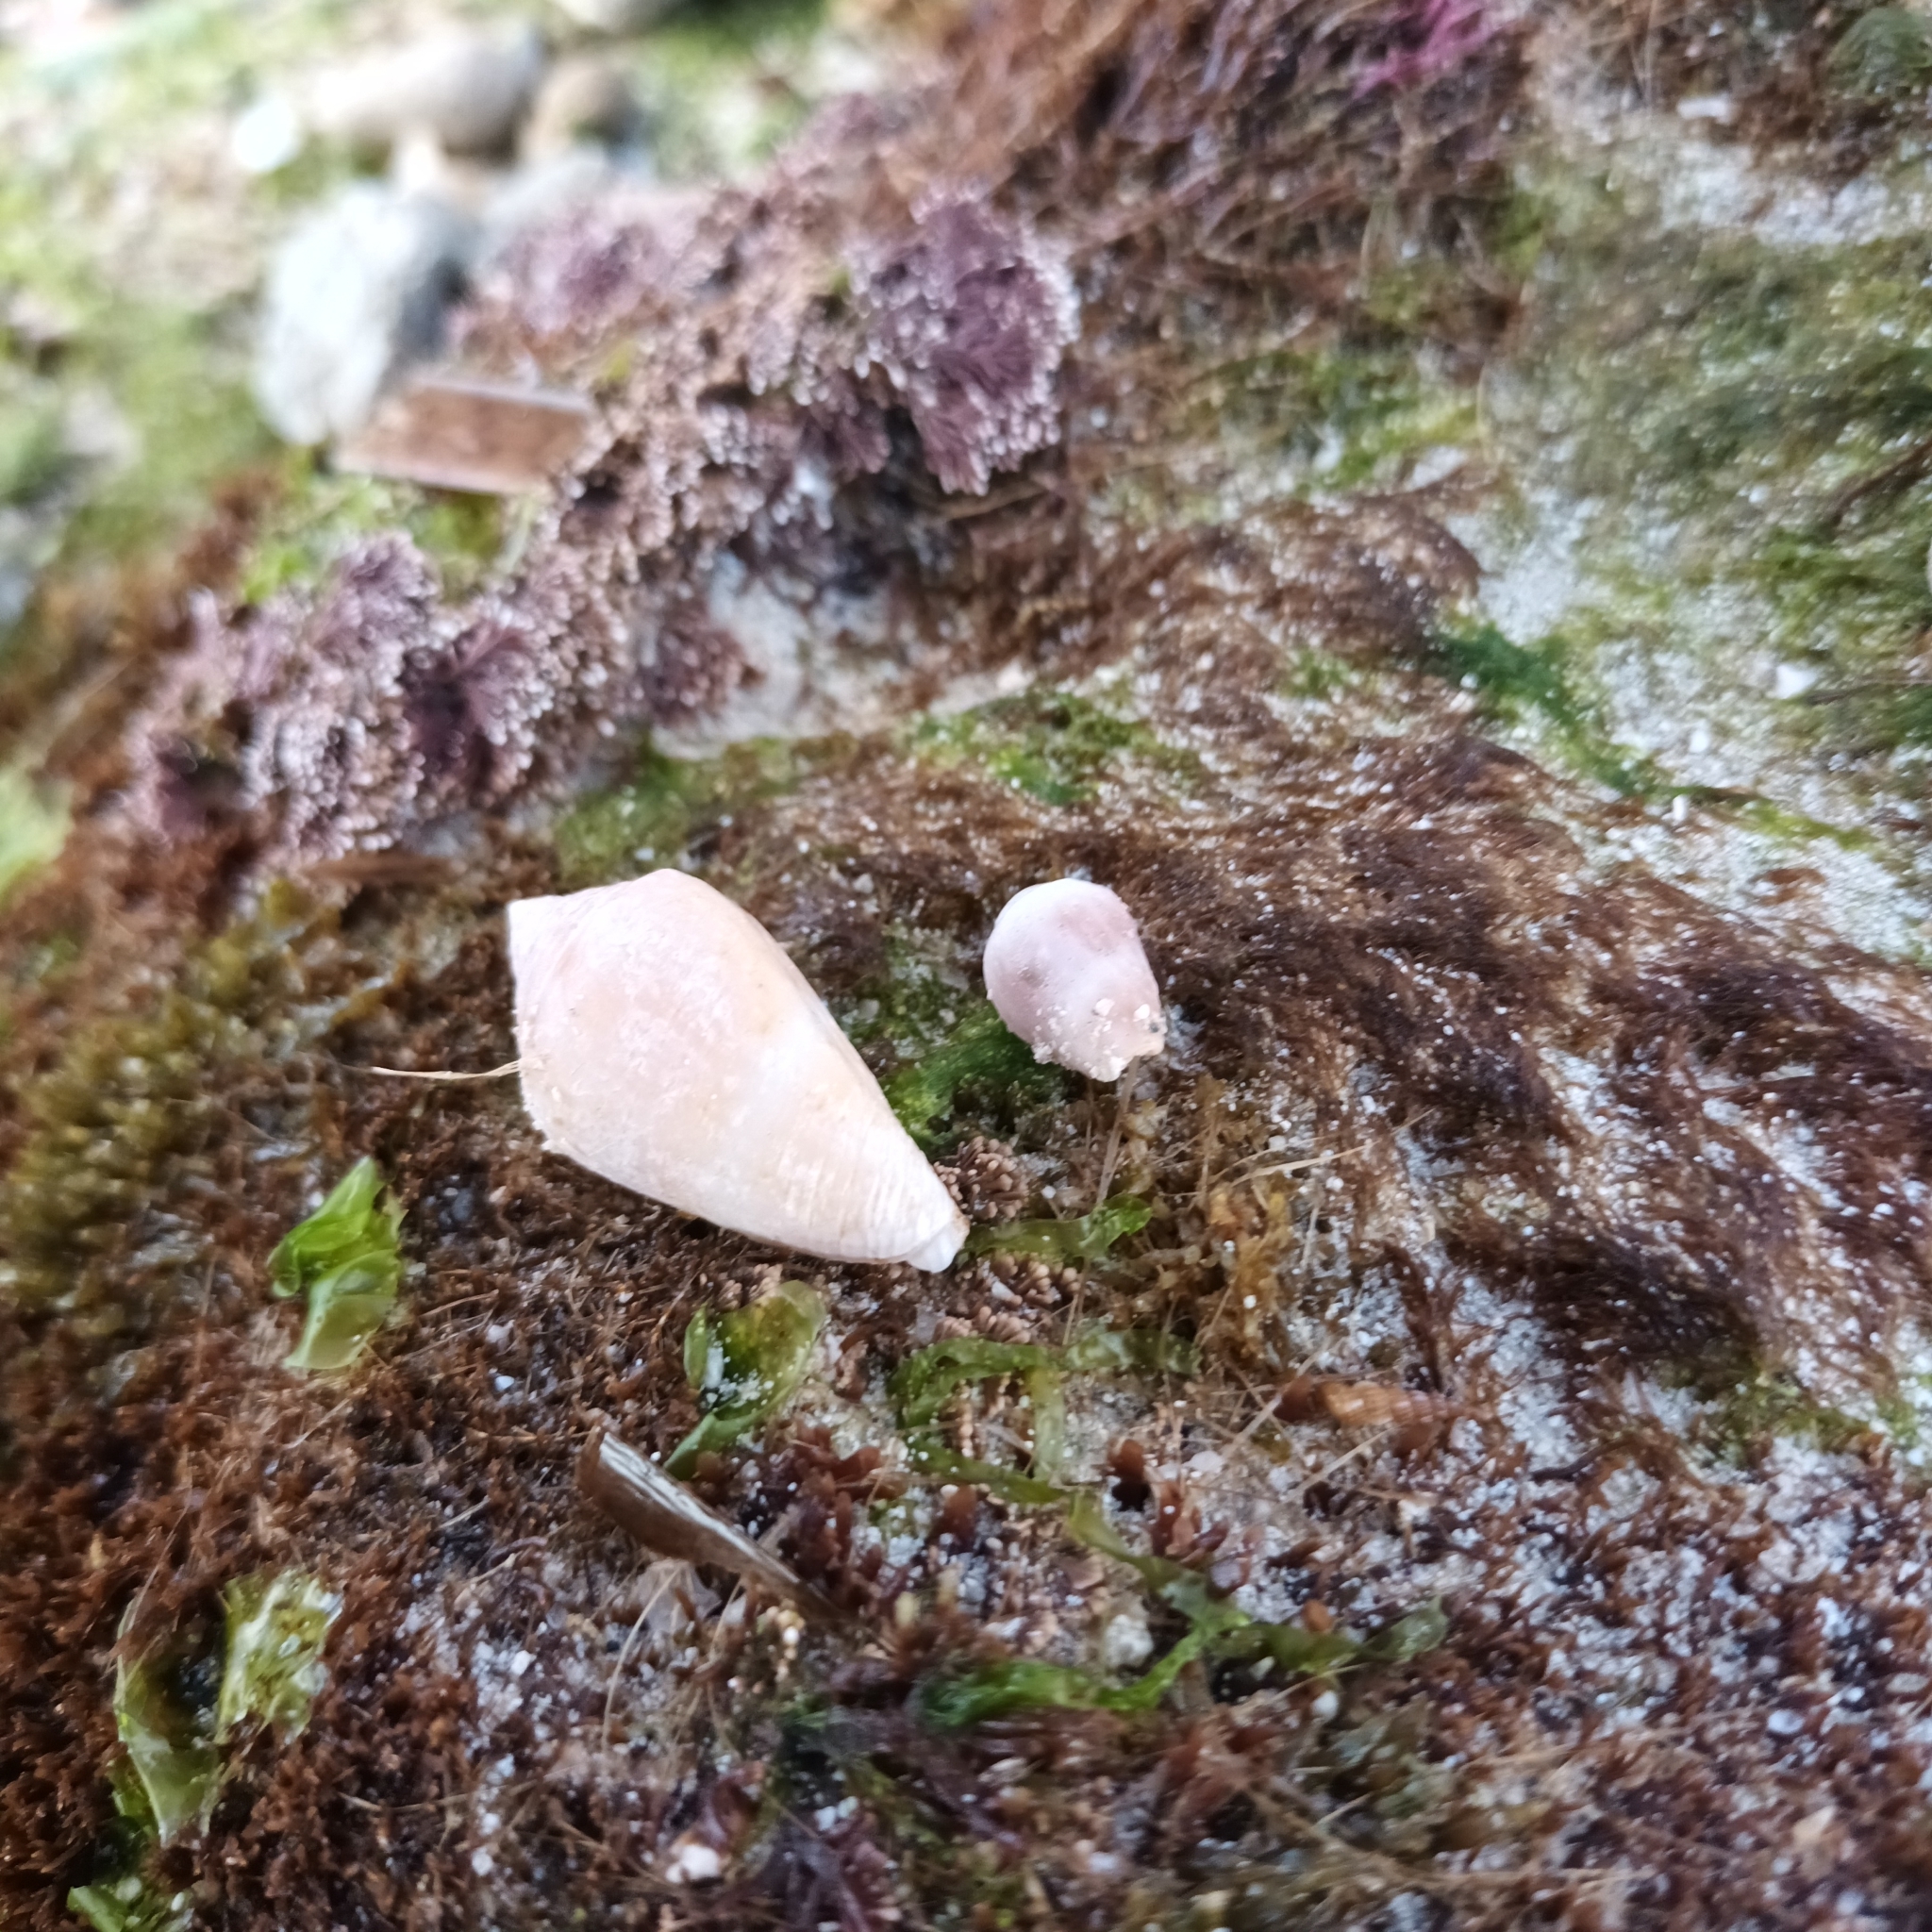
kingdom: Animalia
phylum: Mollusca
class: Gastropoda
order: Neogastropoda
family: Conidae
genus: Conus
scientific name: Conus ventricosus
